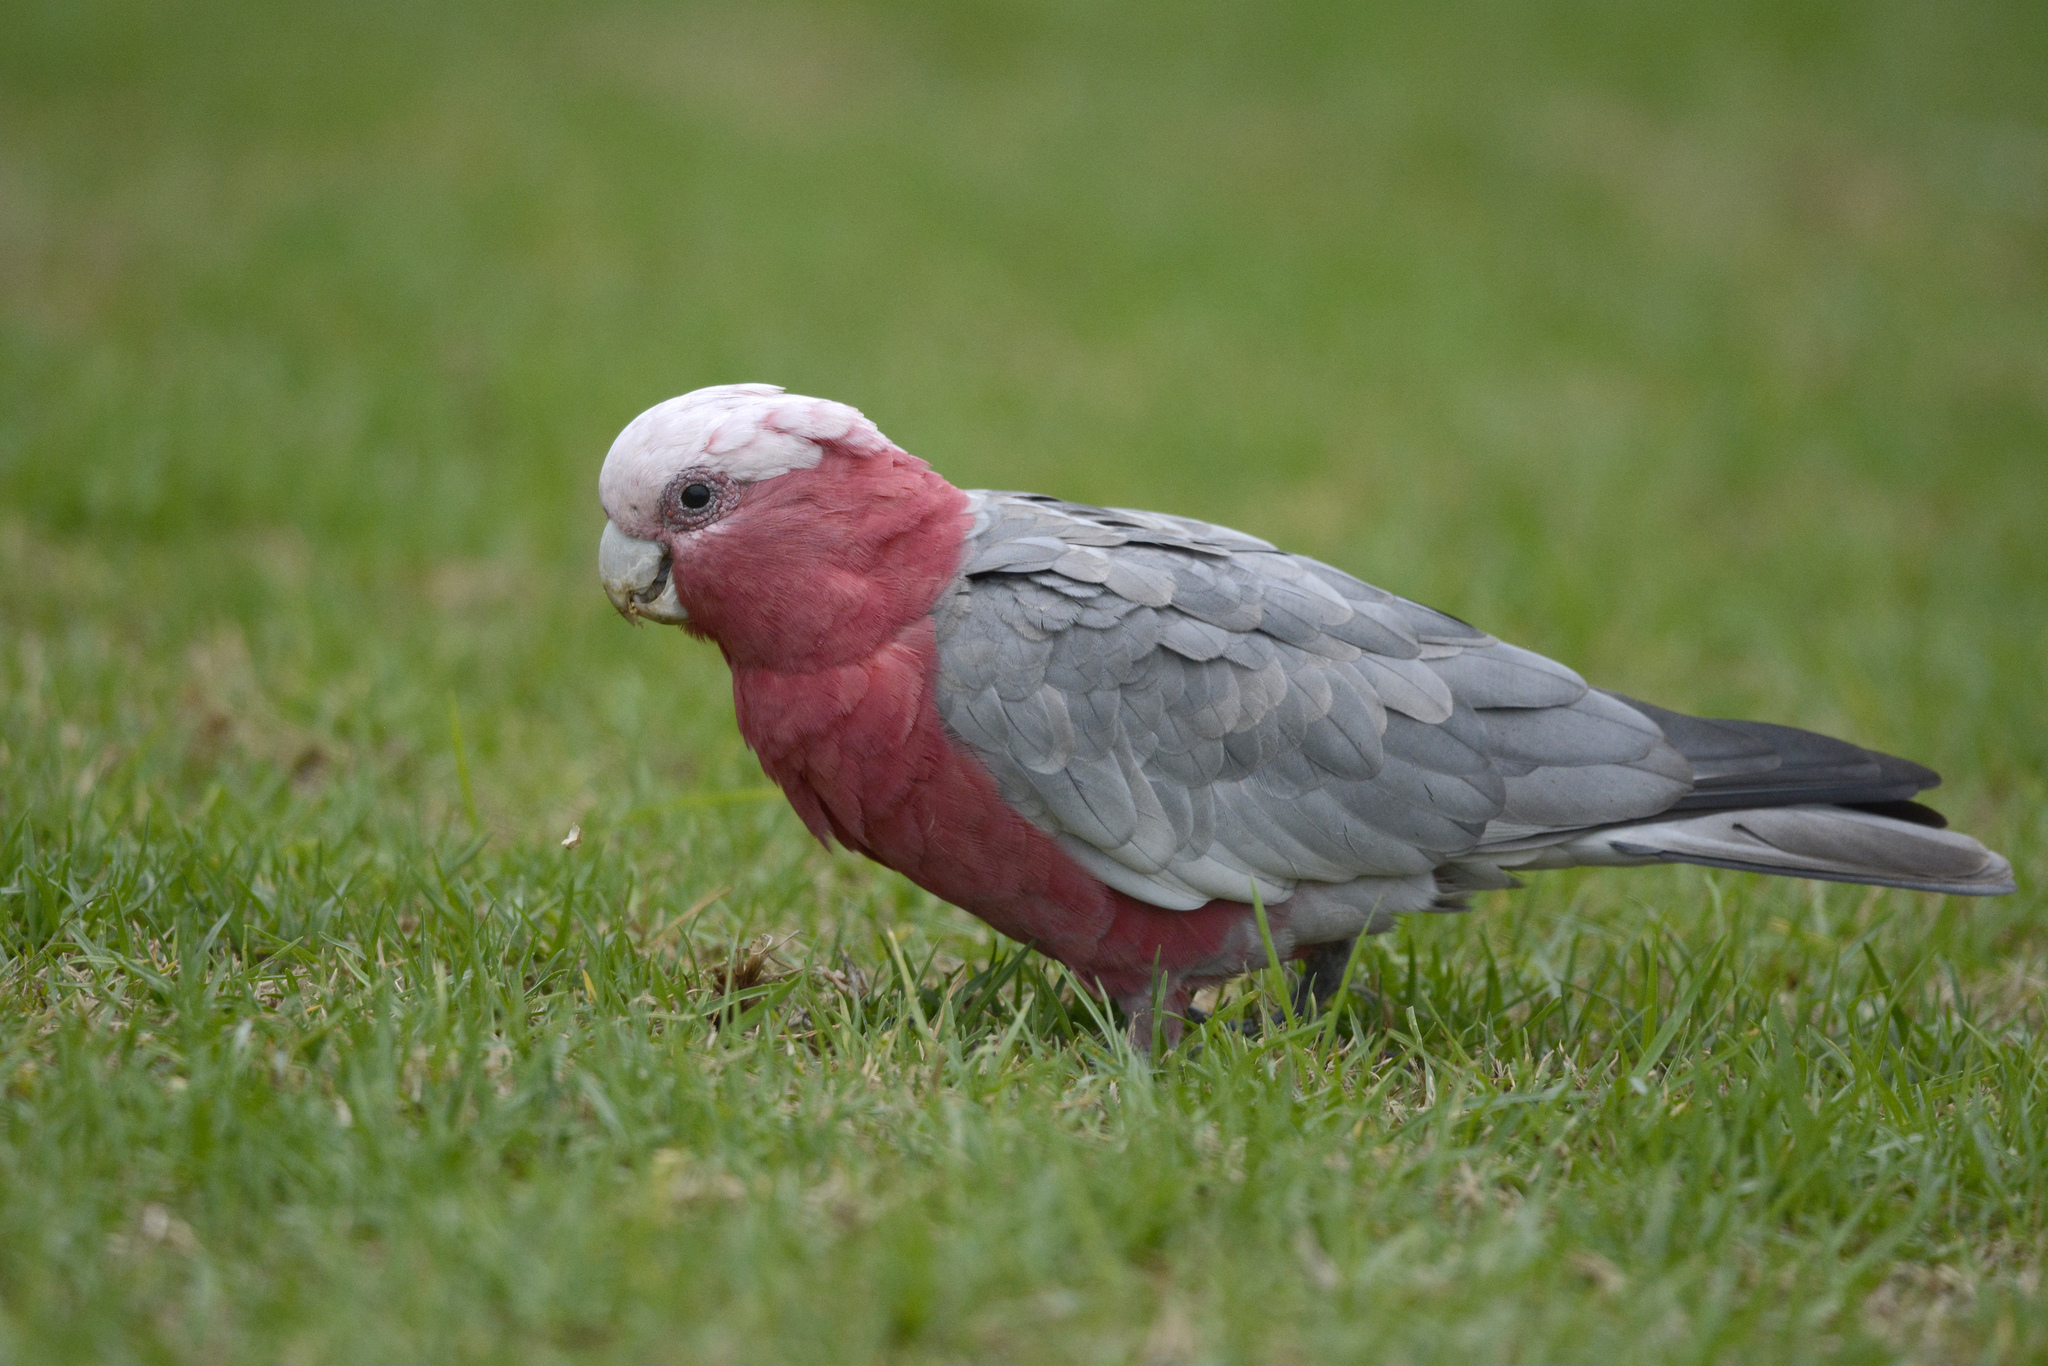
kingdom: Animalia
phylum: Chordata
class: Aves
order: Psittaciformes
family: Psittacidae
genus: Eolophus
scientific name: Eolophus roseicapilla
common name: Galah
